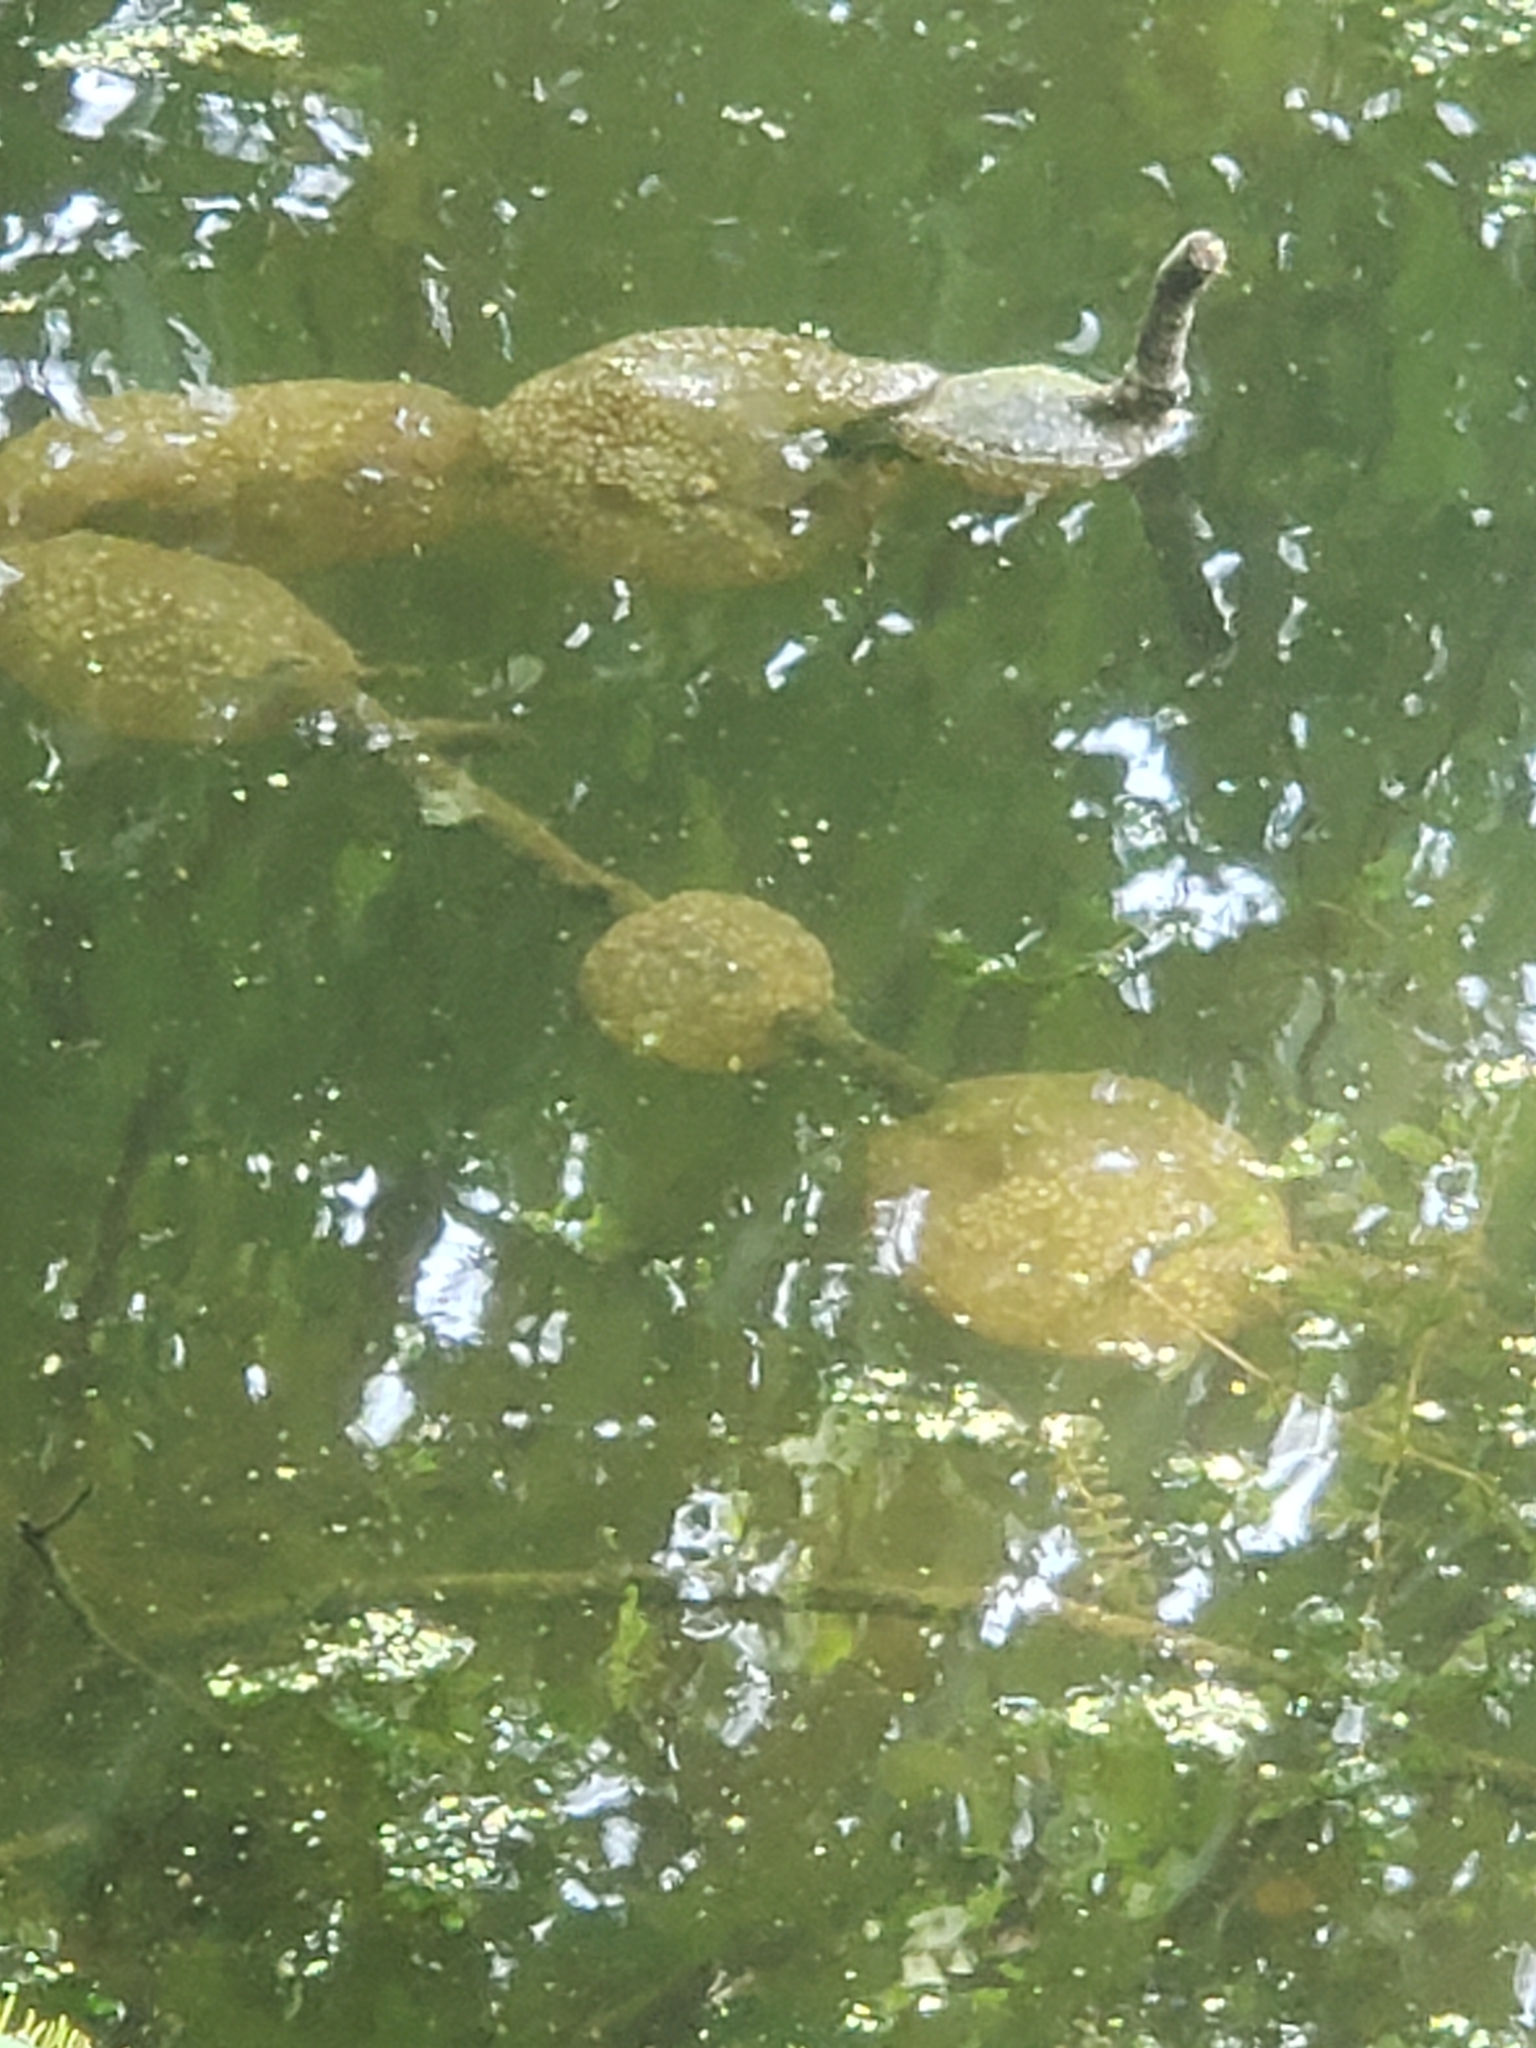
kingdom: Animalia
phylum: Bryozoa
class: Phylactolaemata
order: Plumatellida
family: Pectinatellidae
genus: Pectinatella
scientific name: Pectinatella magnifica
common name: Magnificent bryozoan
